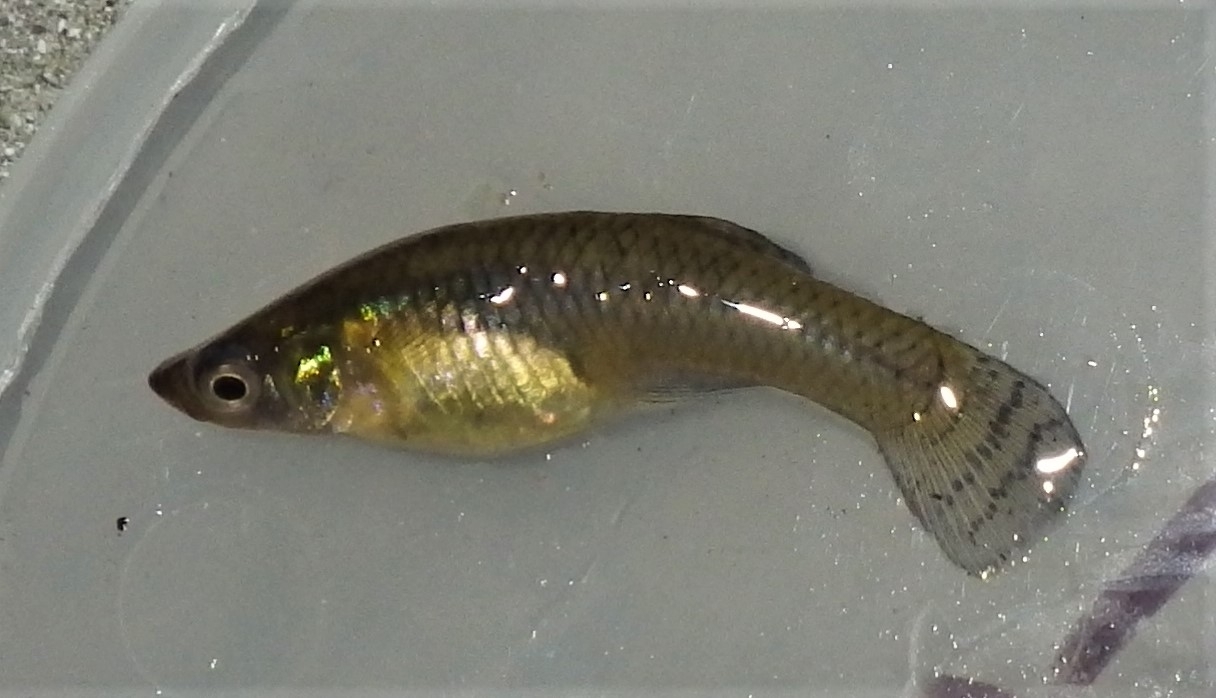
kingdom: Animalia
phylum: Chordata
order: Cyprinodontiformes
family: Poeciliidae
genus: Gambusia
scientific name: Gambusia holbrooki
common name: Eastern mosquitofish
